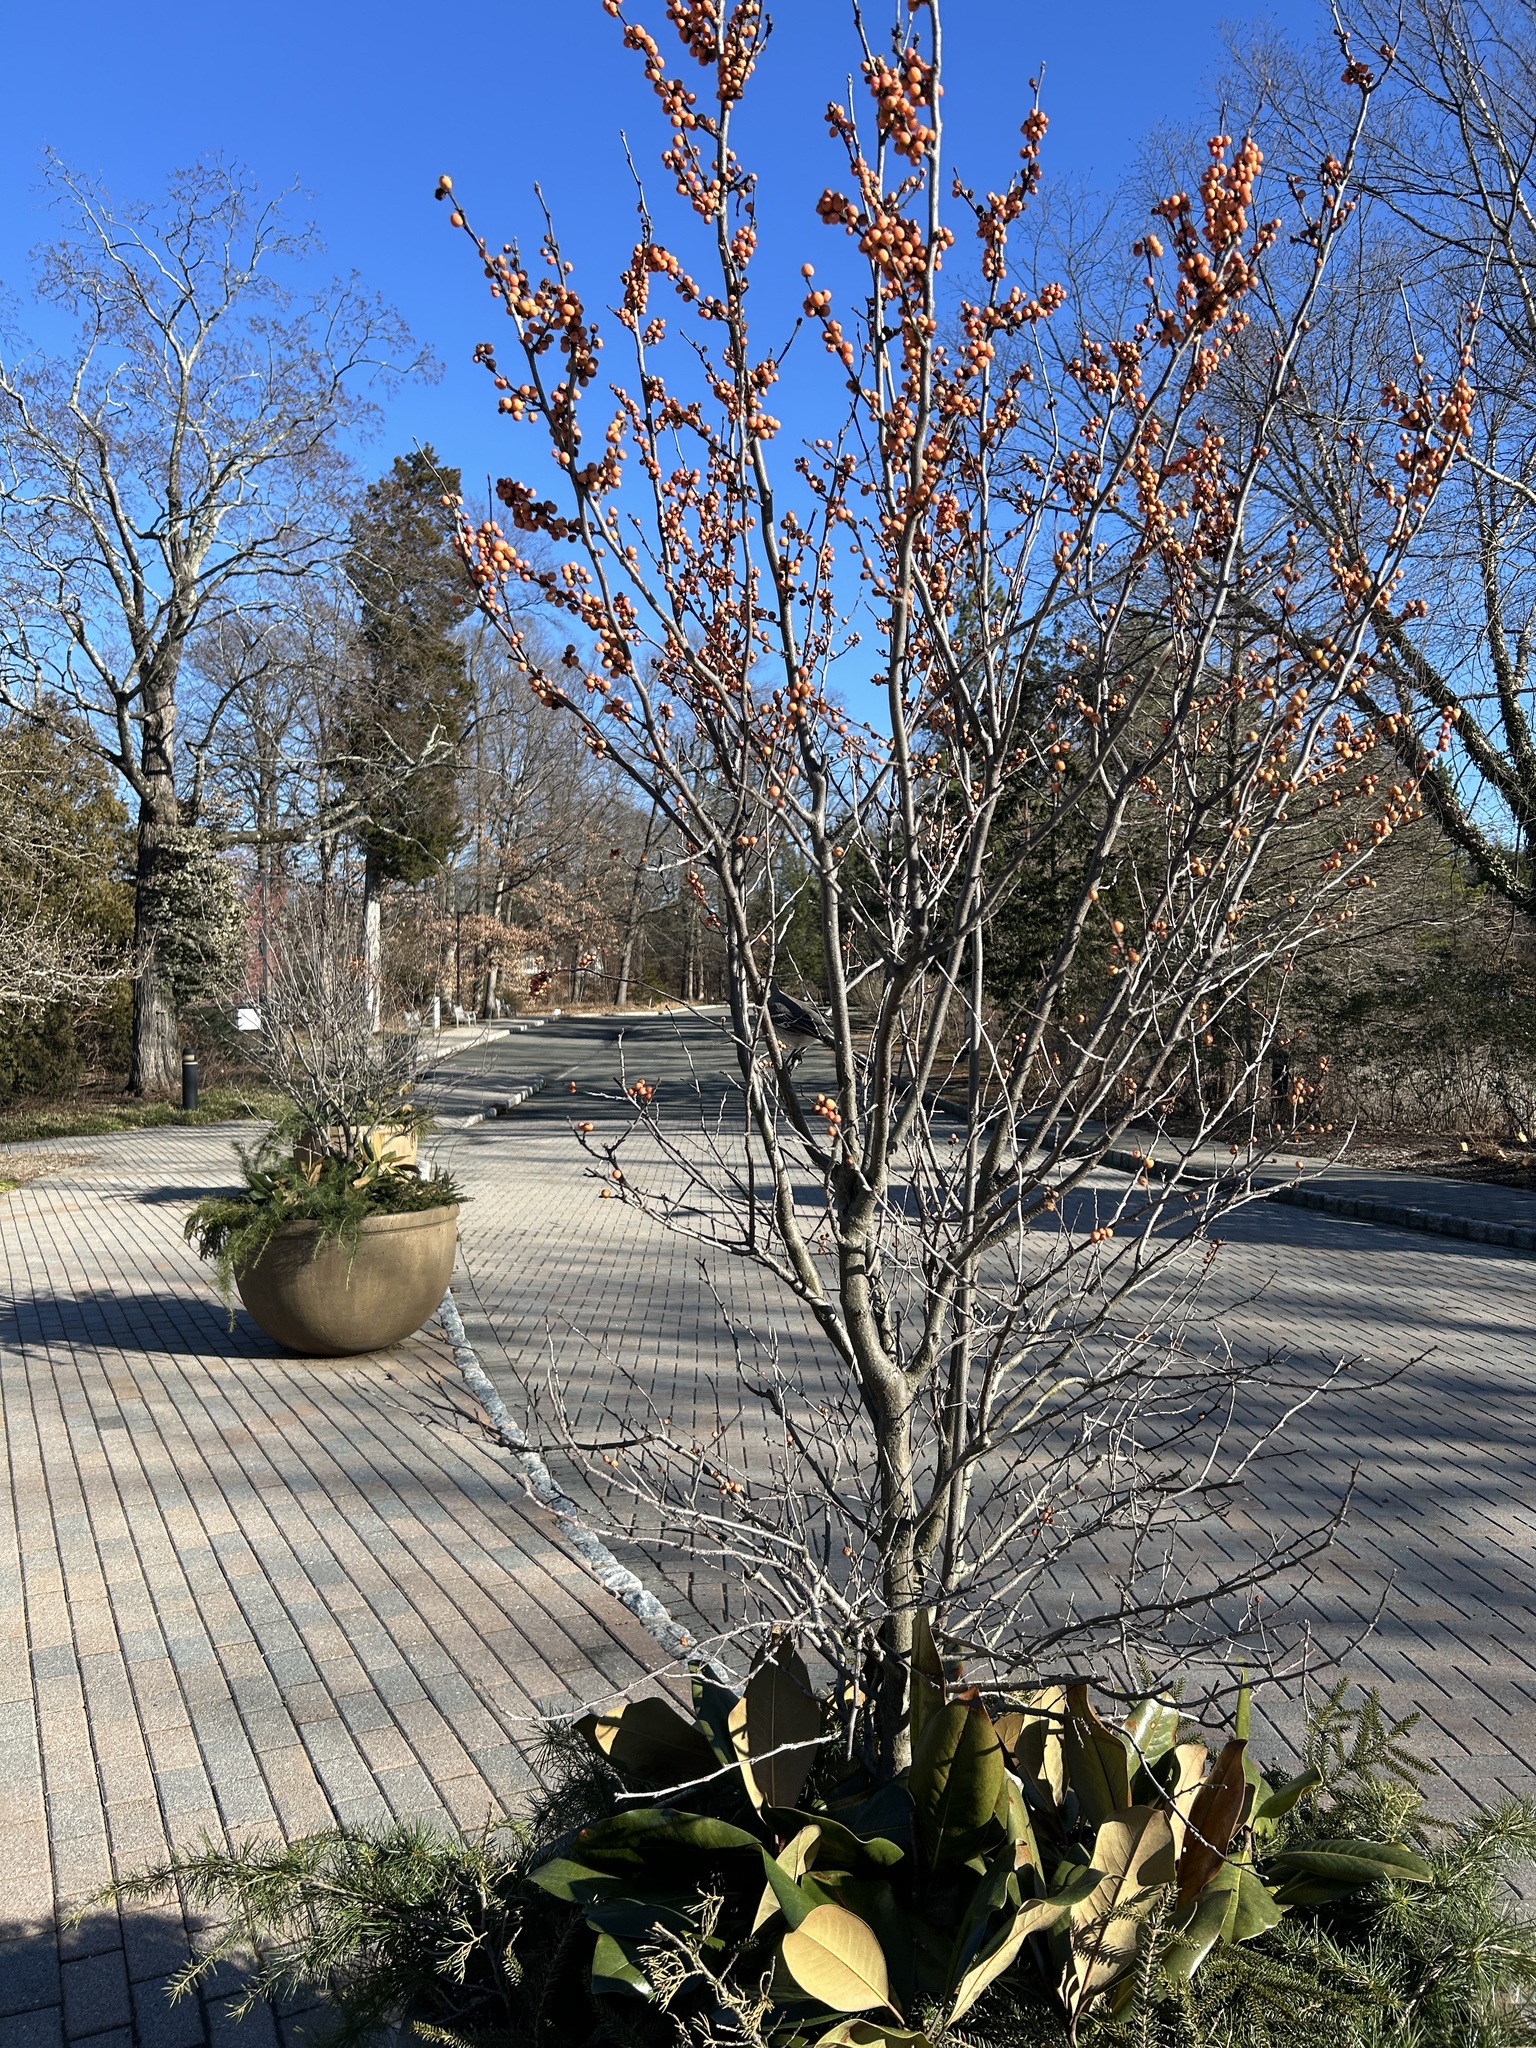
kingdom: Animalia
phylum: Chordata
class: Aves
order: Passeriformes
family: Mimidae
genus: Mimus
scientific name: Mimus polyglottos
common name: Northern mockingbird
